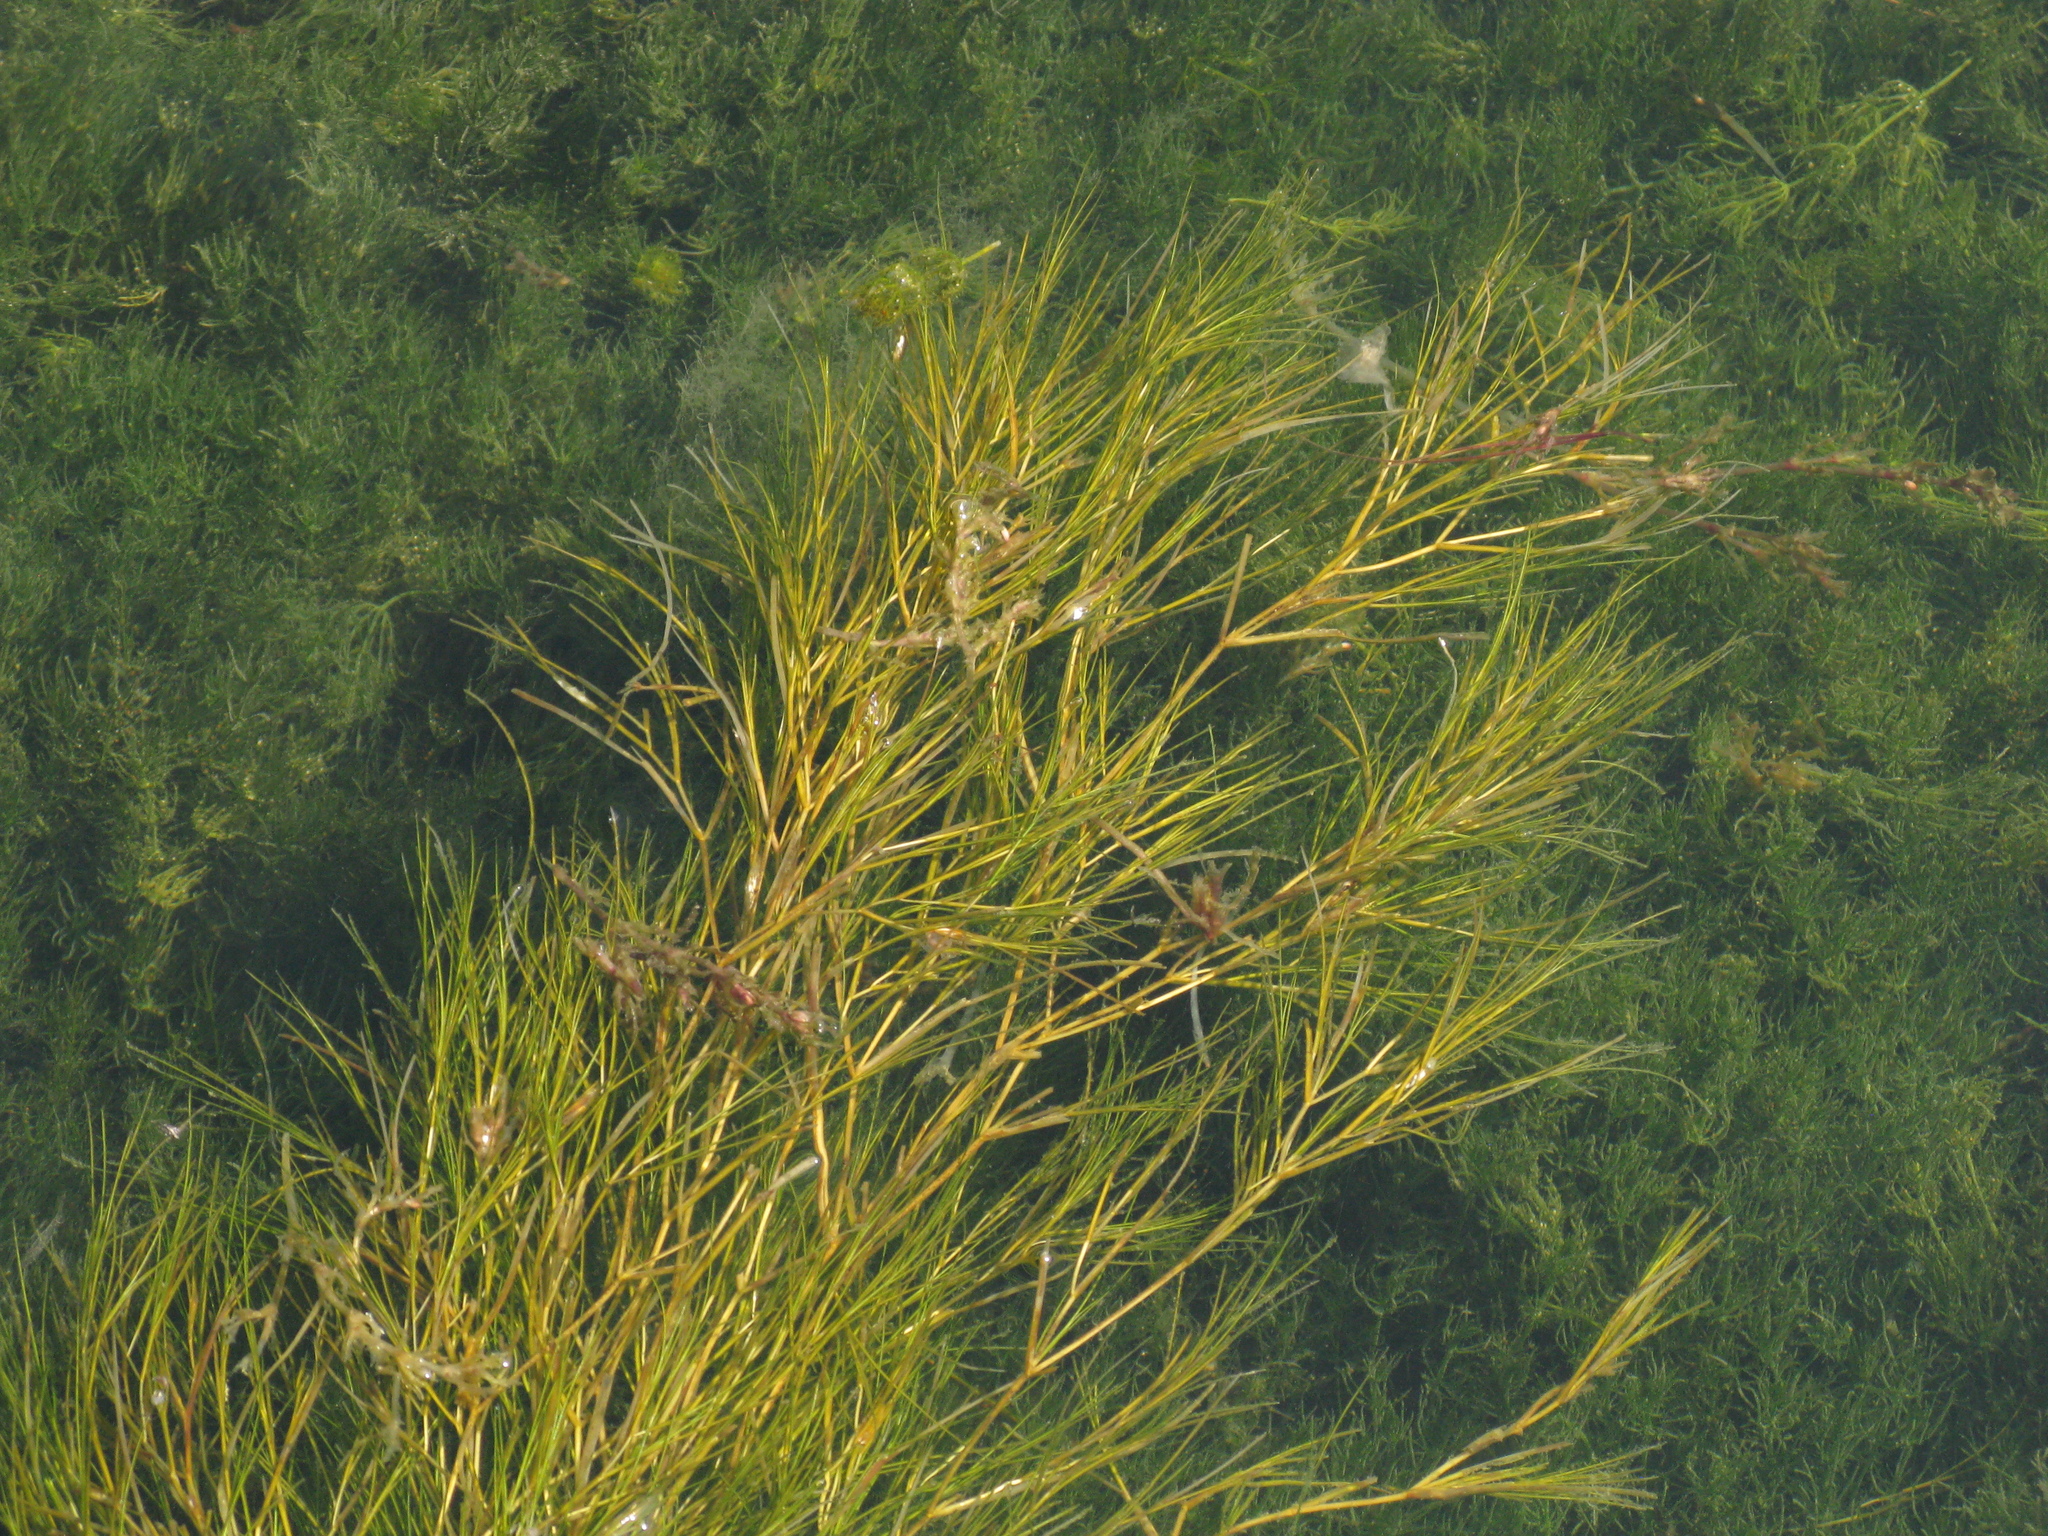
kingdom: Plantae
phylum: Tracheophyta
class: Liliopsida
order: Alismatales
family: Potamogetonaceae
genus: Stuckenia
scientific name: Stuckenia pectinata
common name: Sago pondweed
